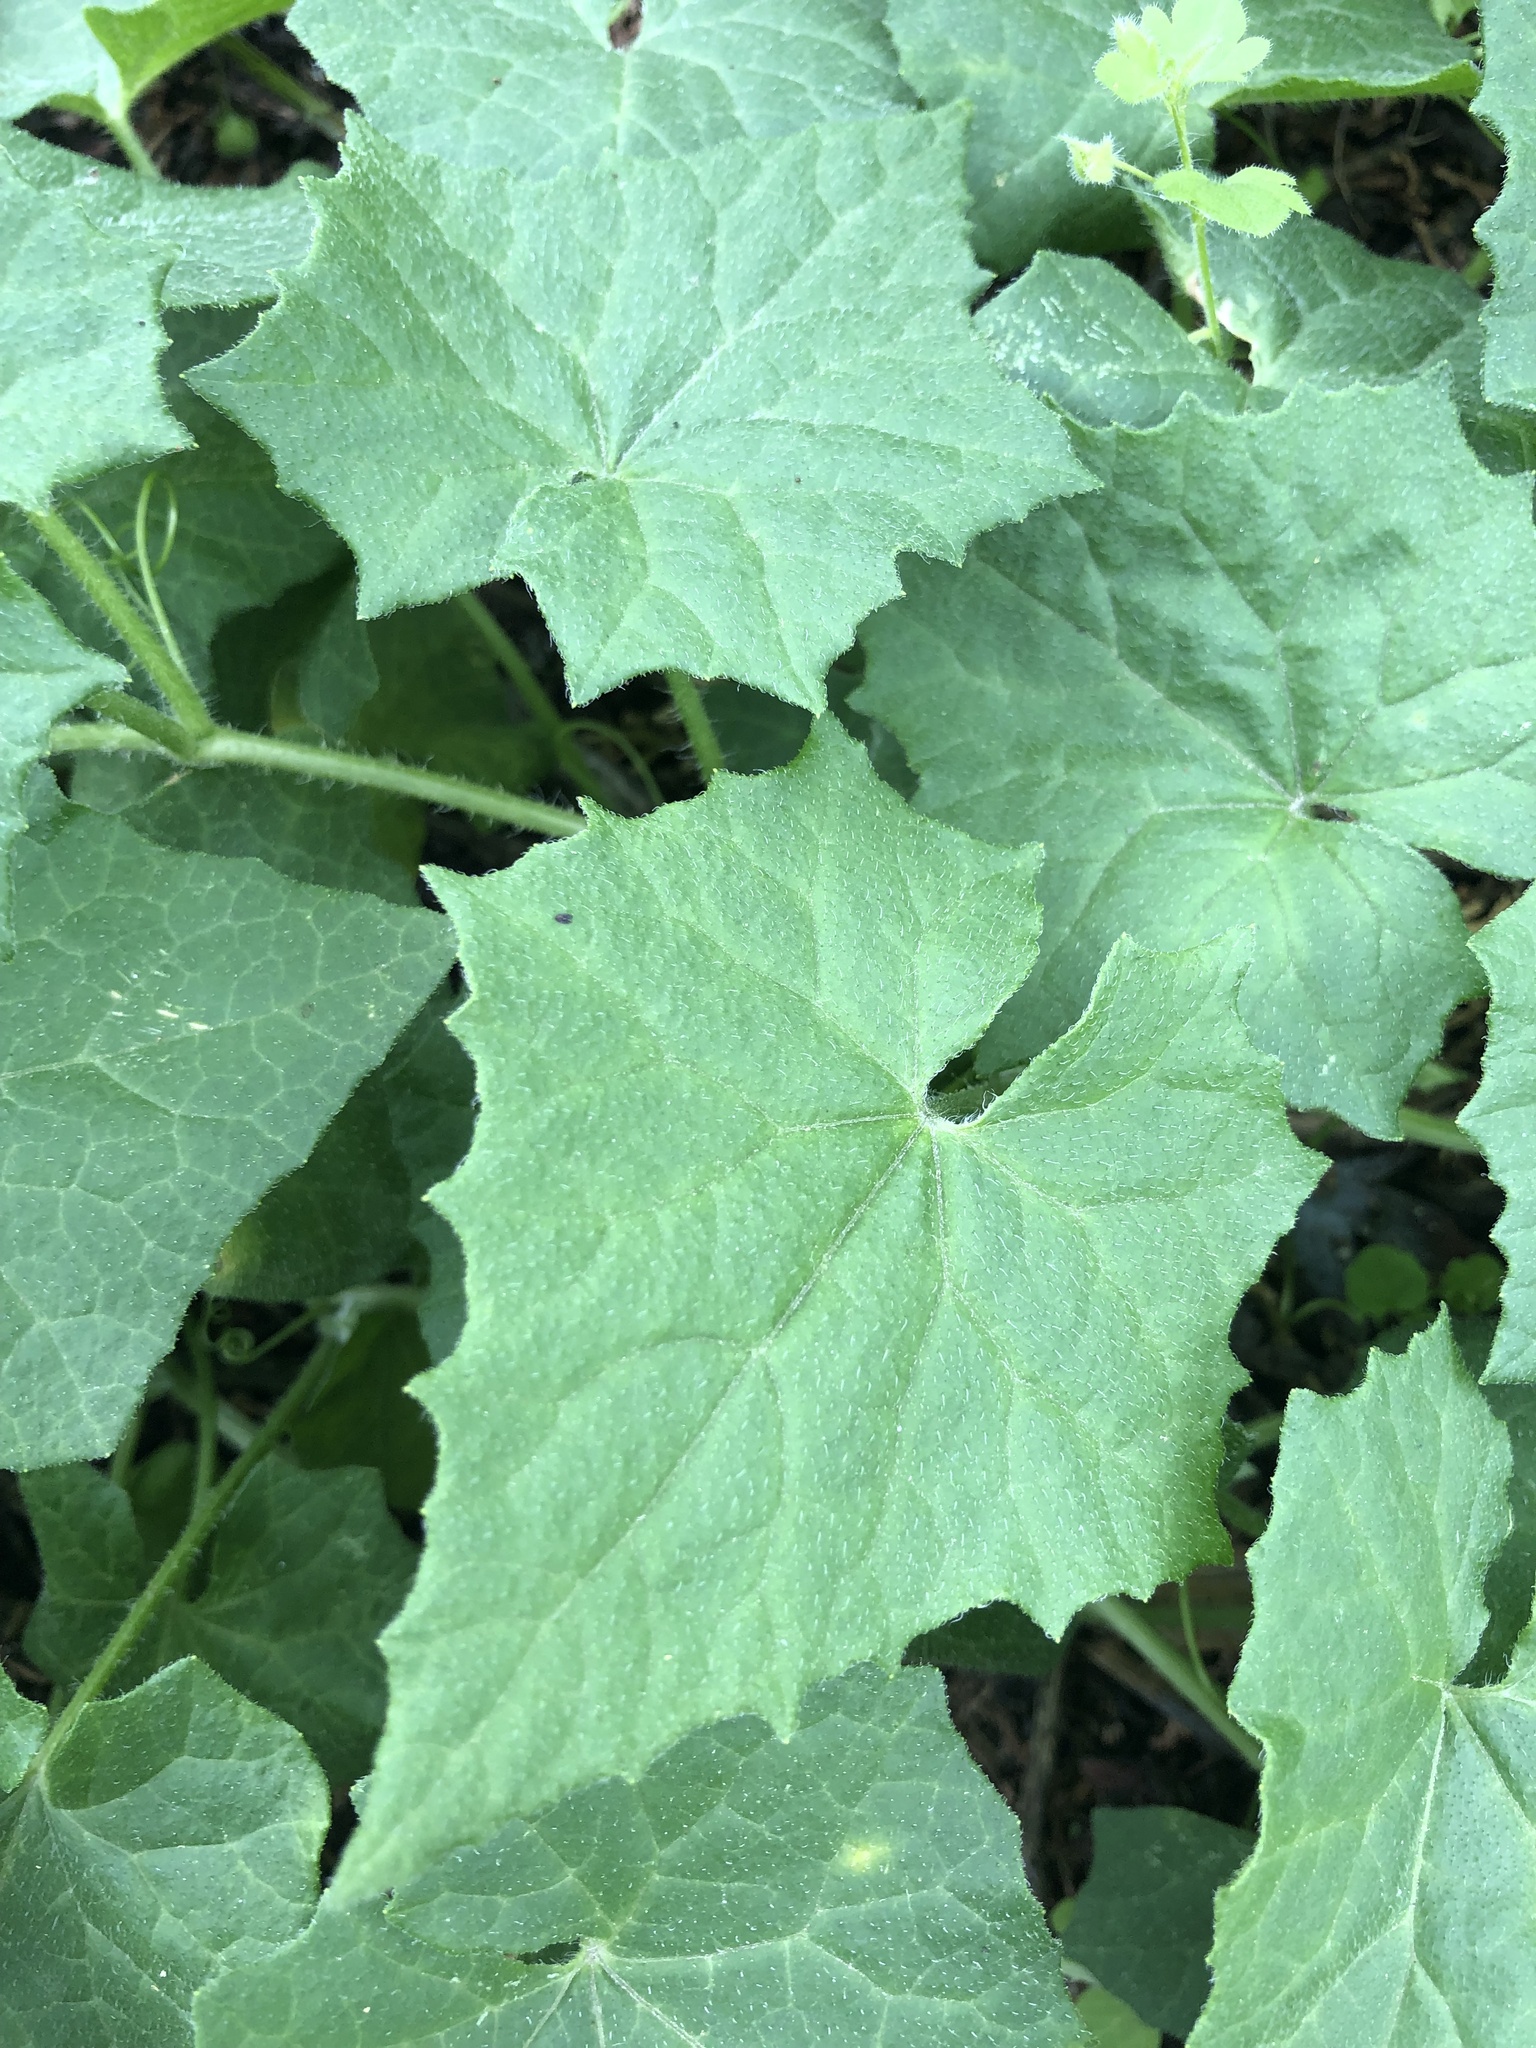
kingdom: Plantae
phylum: Tracheophyta
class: Magnoliopsida
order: Cucurbitales
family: Cucurbitaceae
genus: Bryonia
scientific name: Bryonia dioica
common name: White bryony
